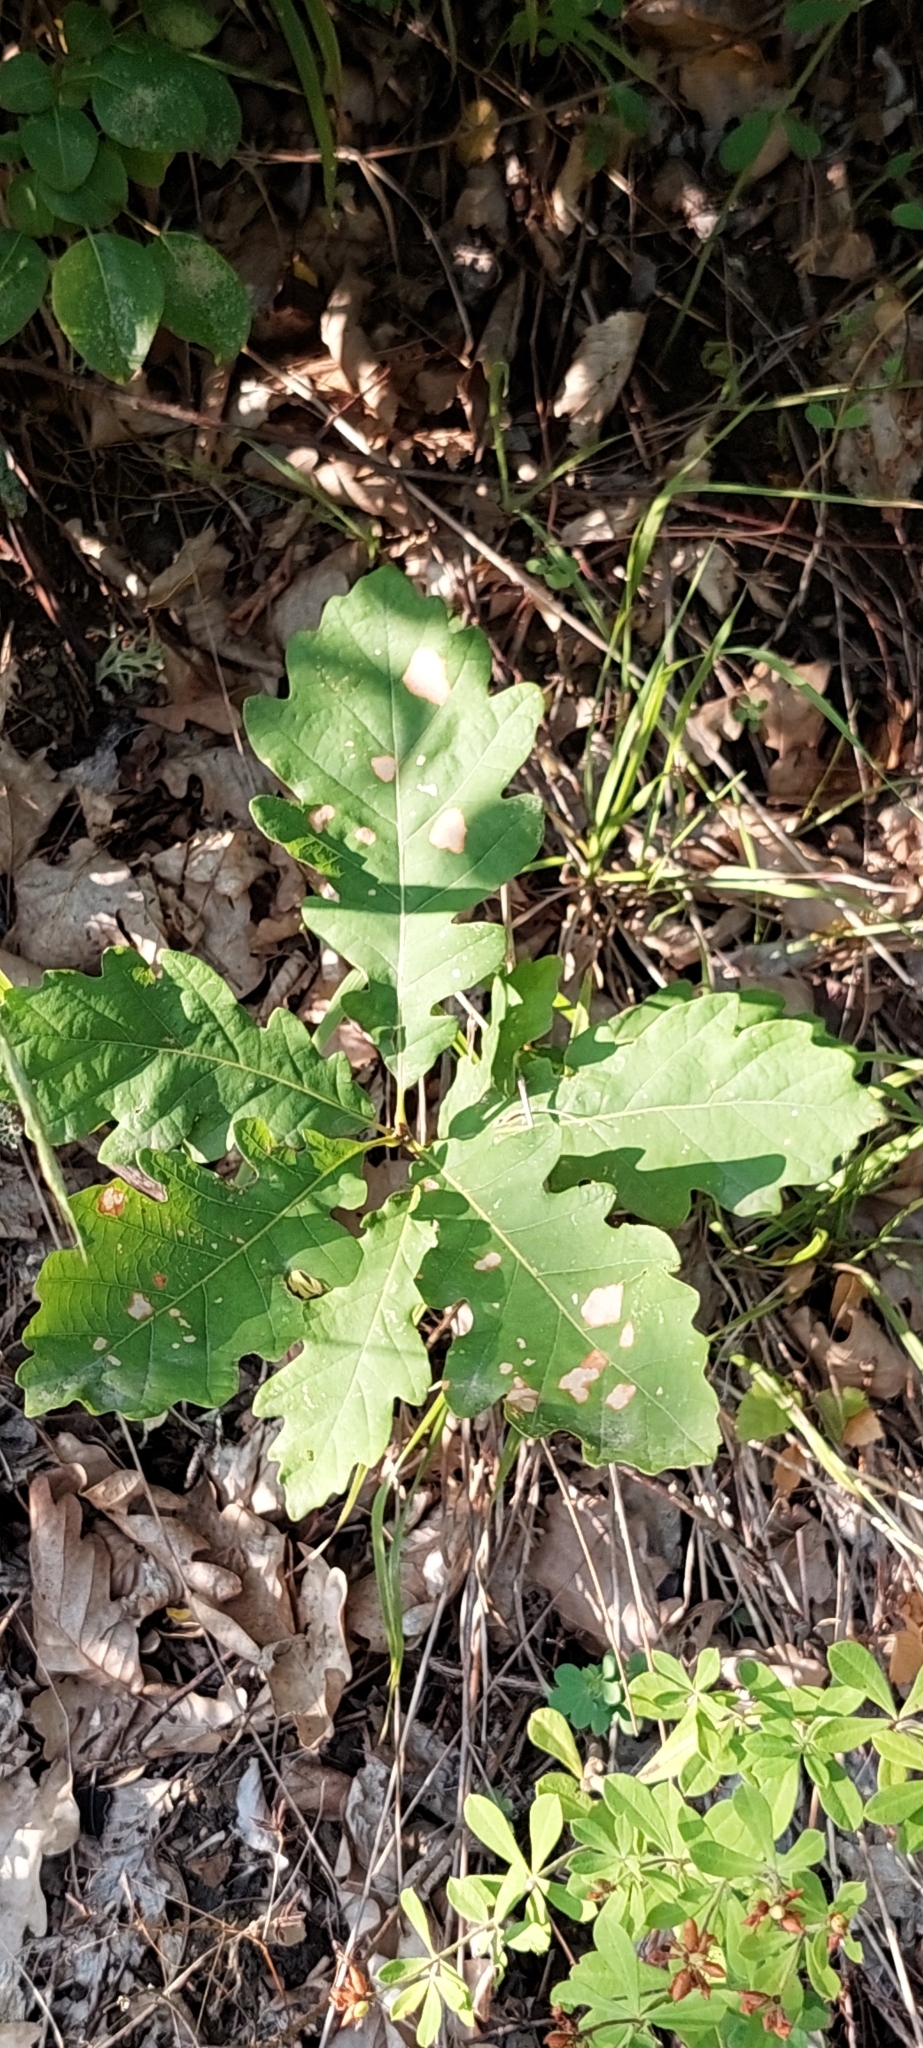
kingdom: Plantae
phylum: Tracheophyta
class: Magnoliopsida
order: Fagales
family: Fagaceae
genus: Quercus
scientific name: Quercus robur
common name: Pedunculate oak
